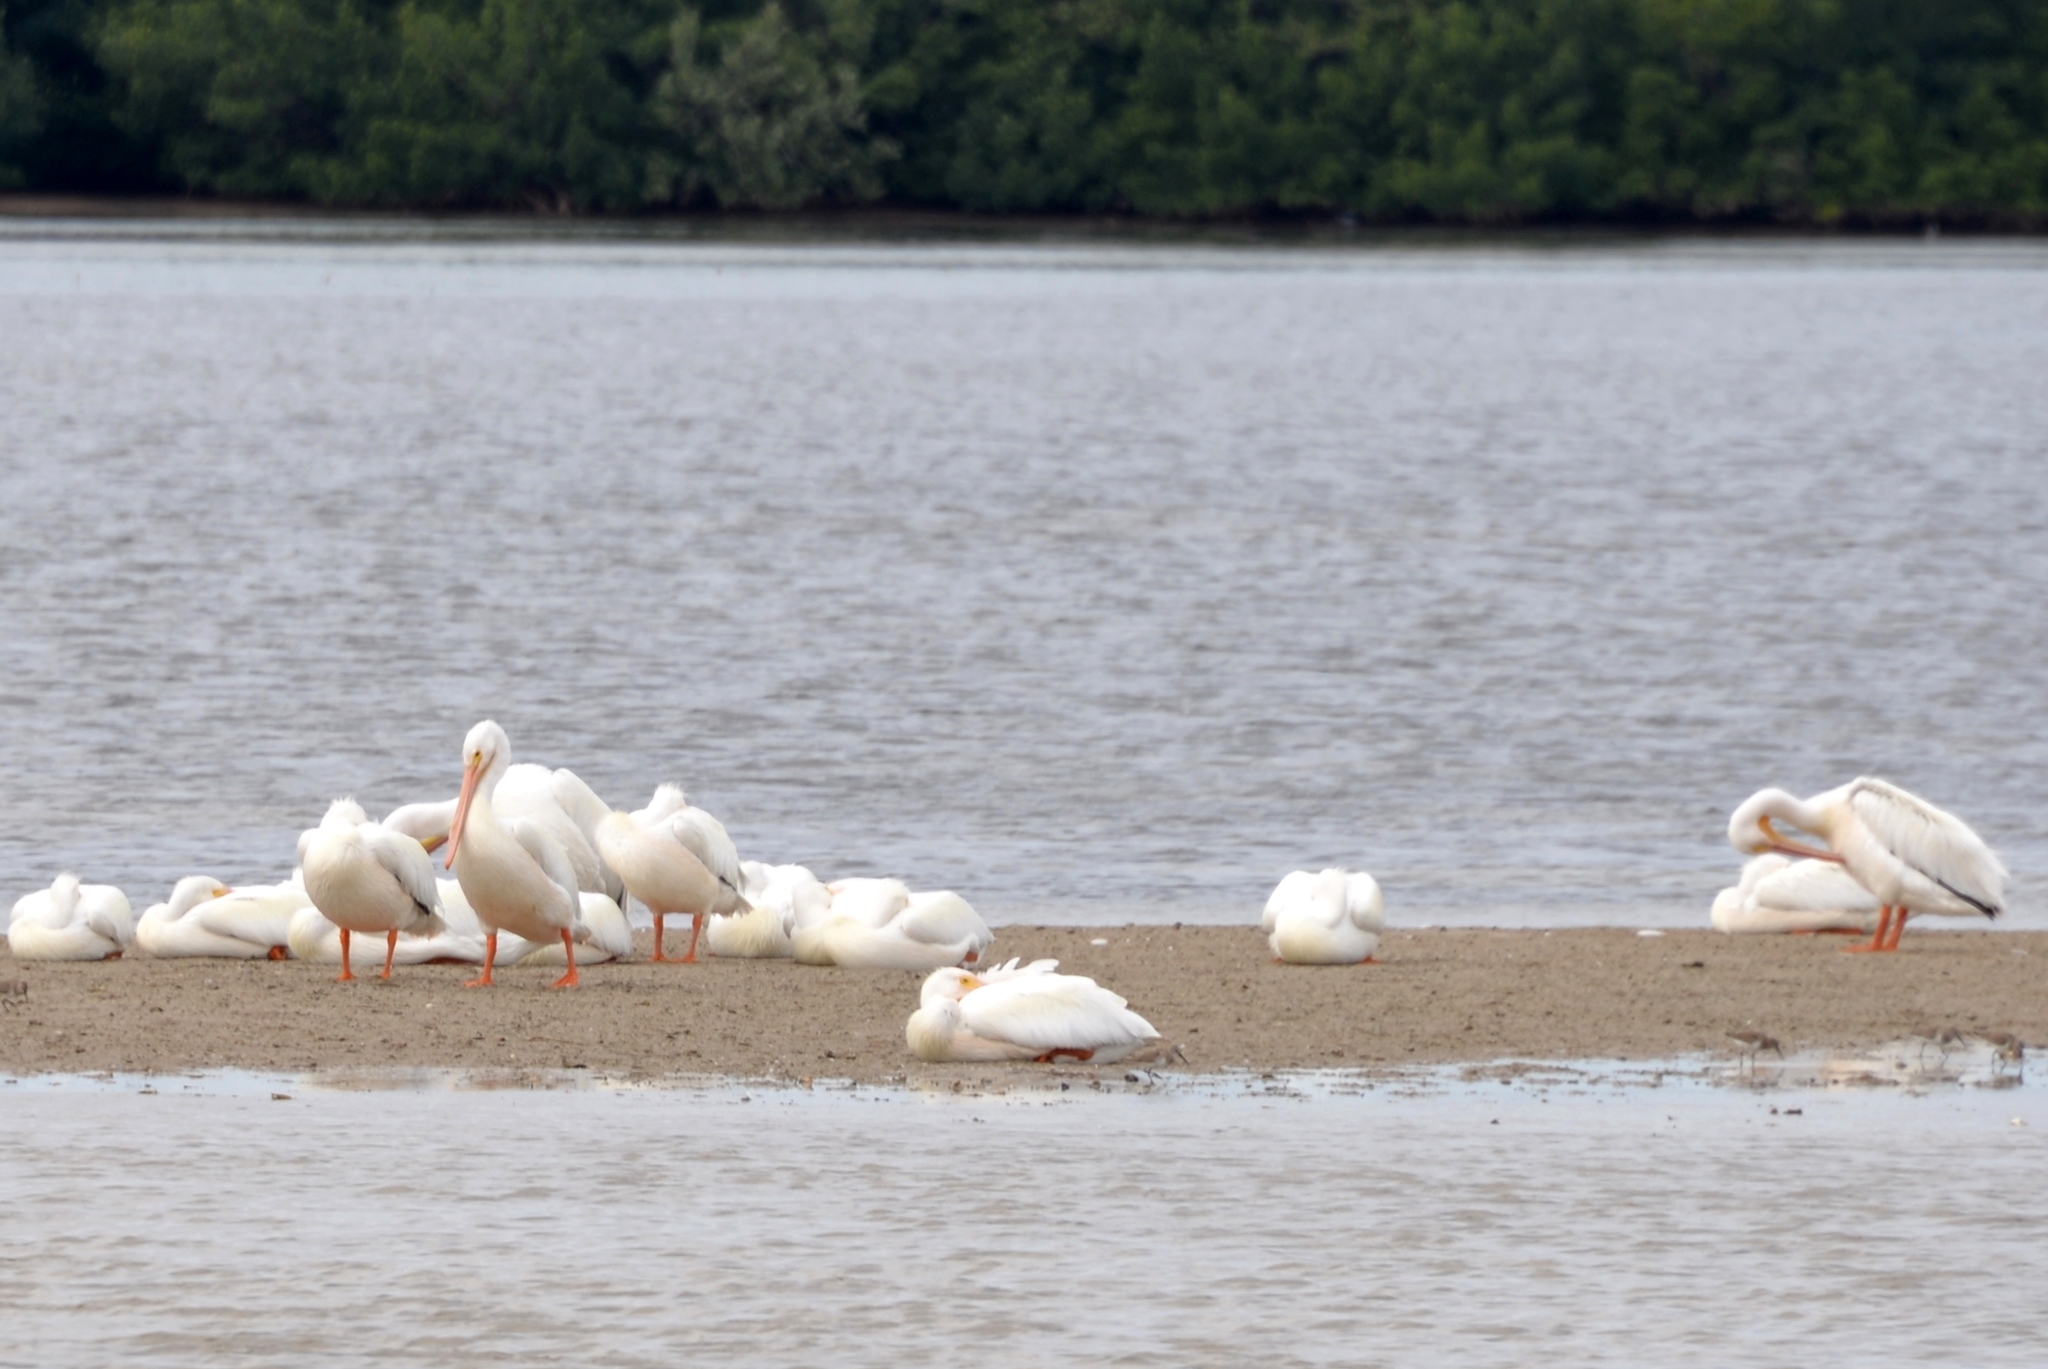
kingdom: Animalia
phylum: Chordata
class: Aves
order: Pelecaniformes
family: Pelecanidae
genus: Pelecanus
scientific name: Pelecanus erythrorhynchos
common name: American white pelican
